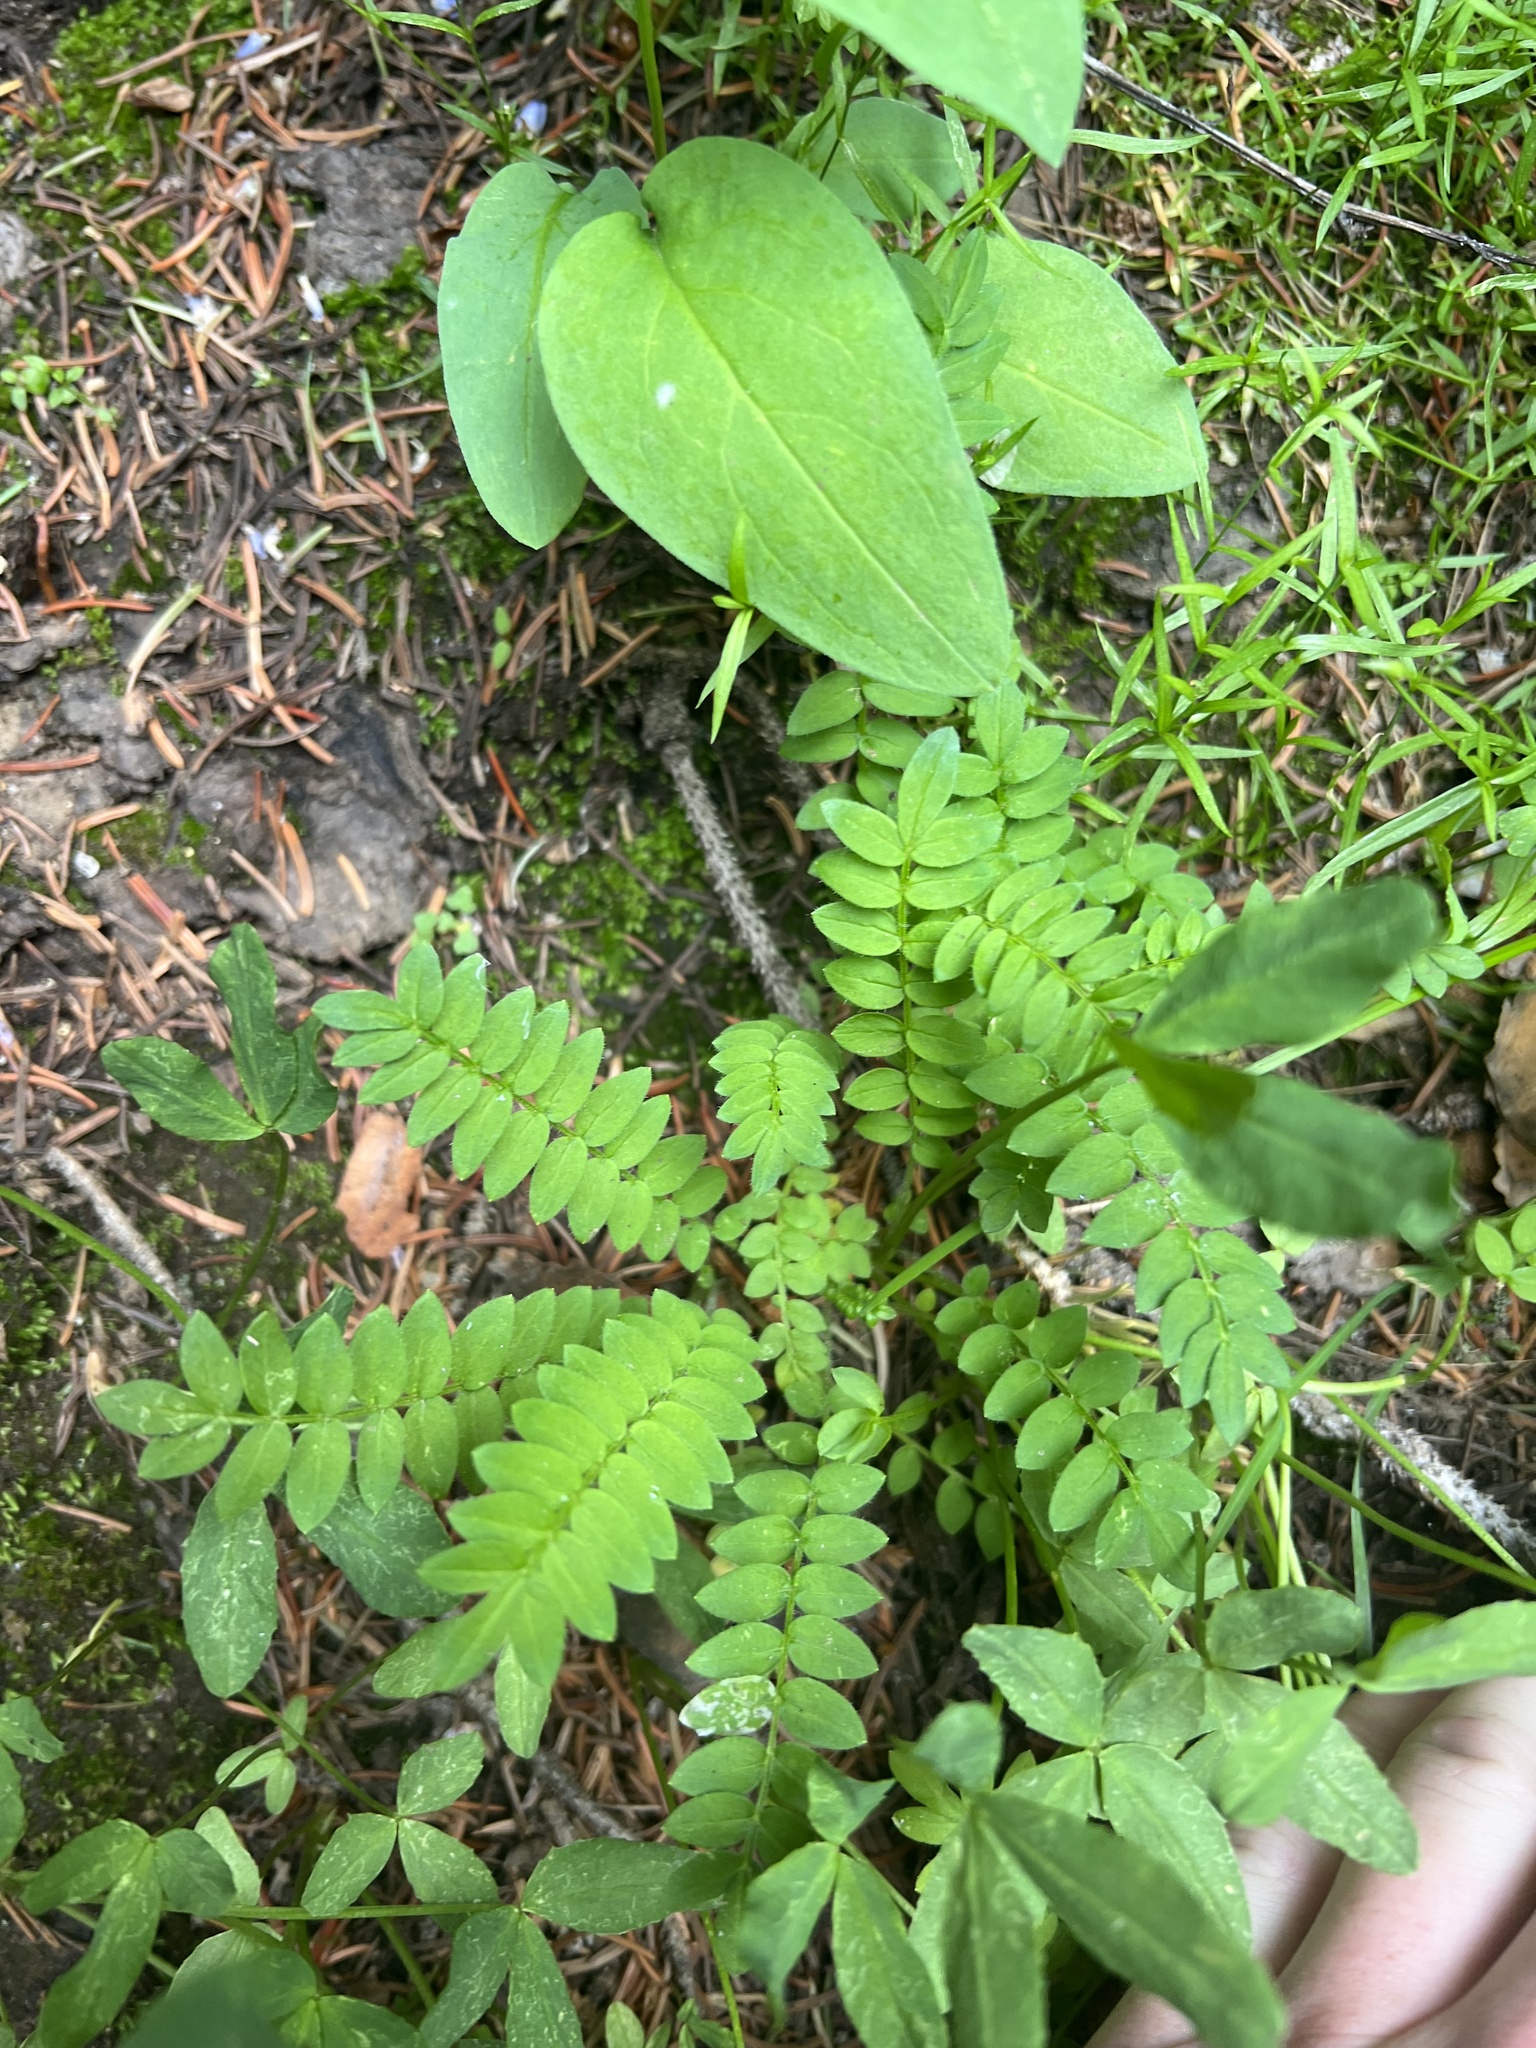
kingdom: Plantae
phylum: Tracheophyta
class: Magnoliopsida
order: Ericales
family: Polemoniaceae
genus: Polemonium
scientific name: Polemonium pulcherrimum
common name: Short jacob's-ladder
